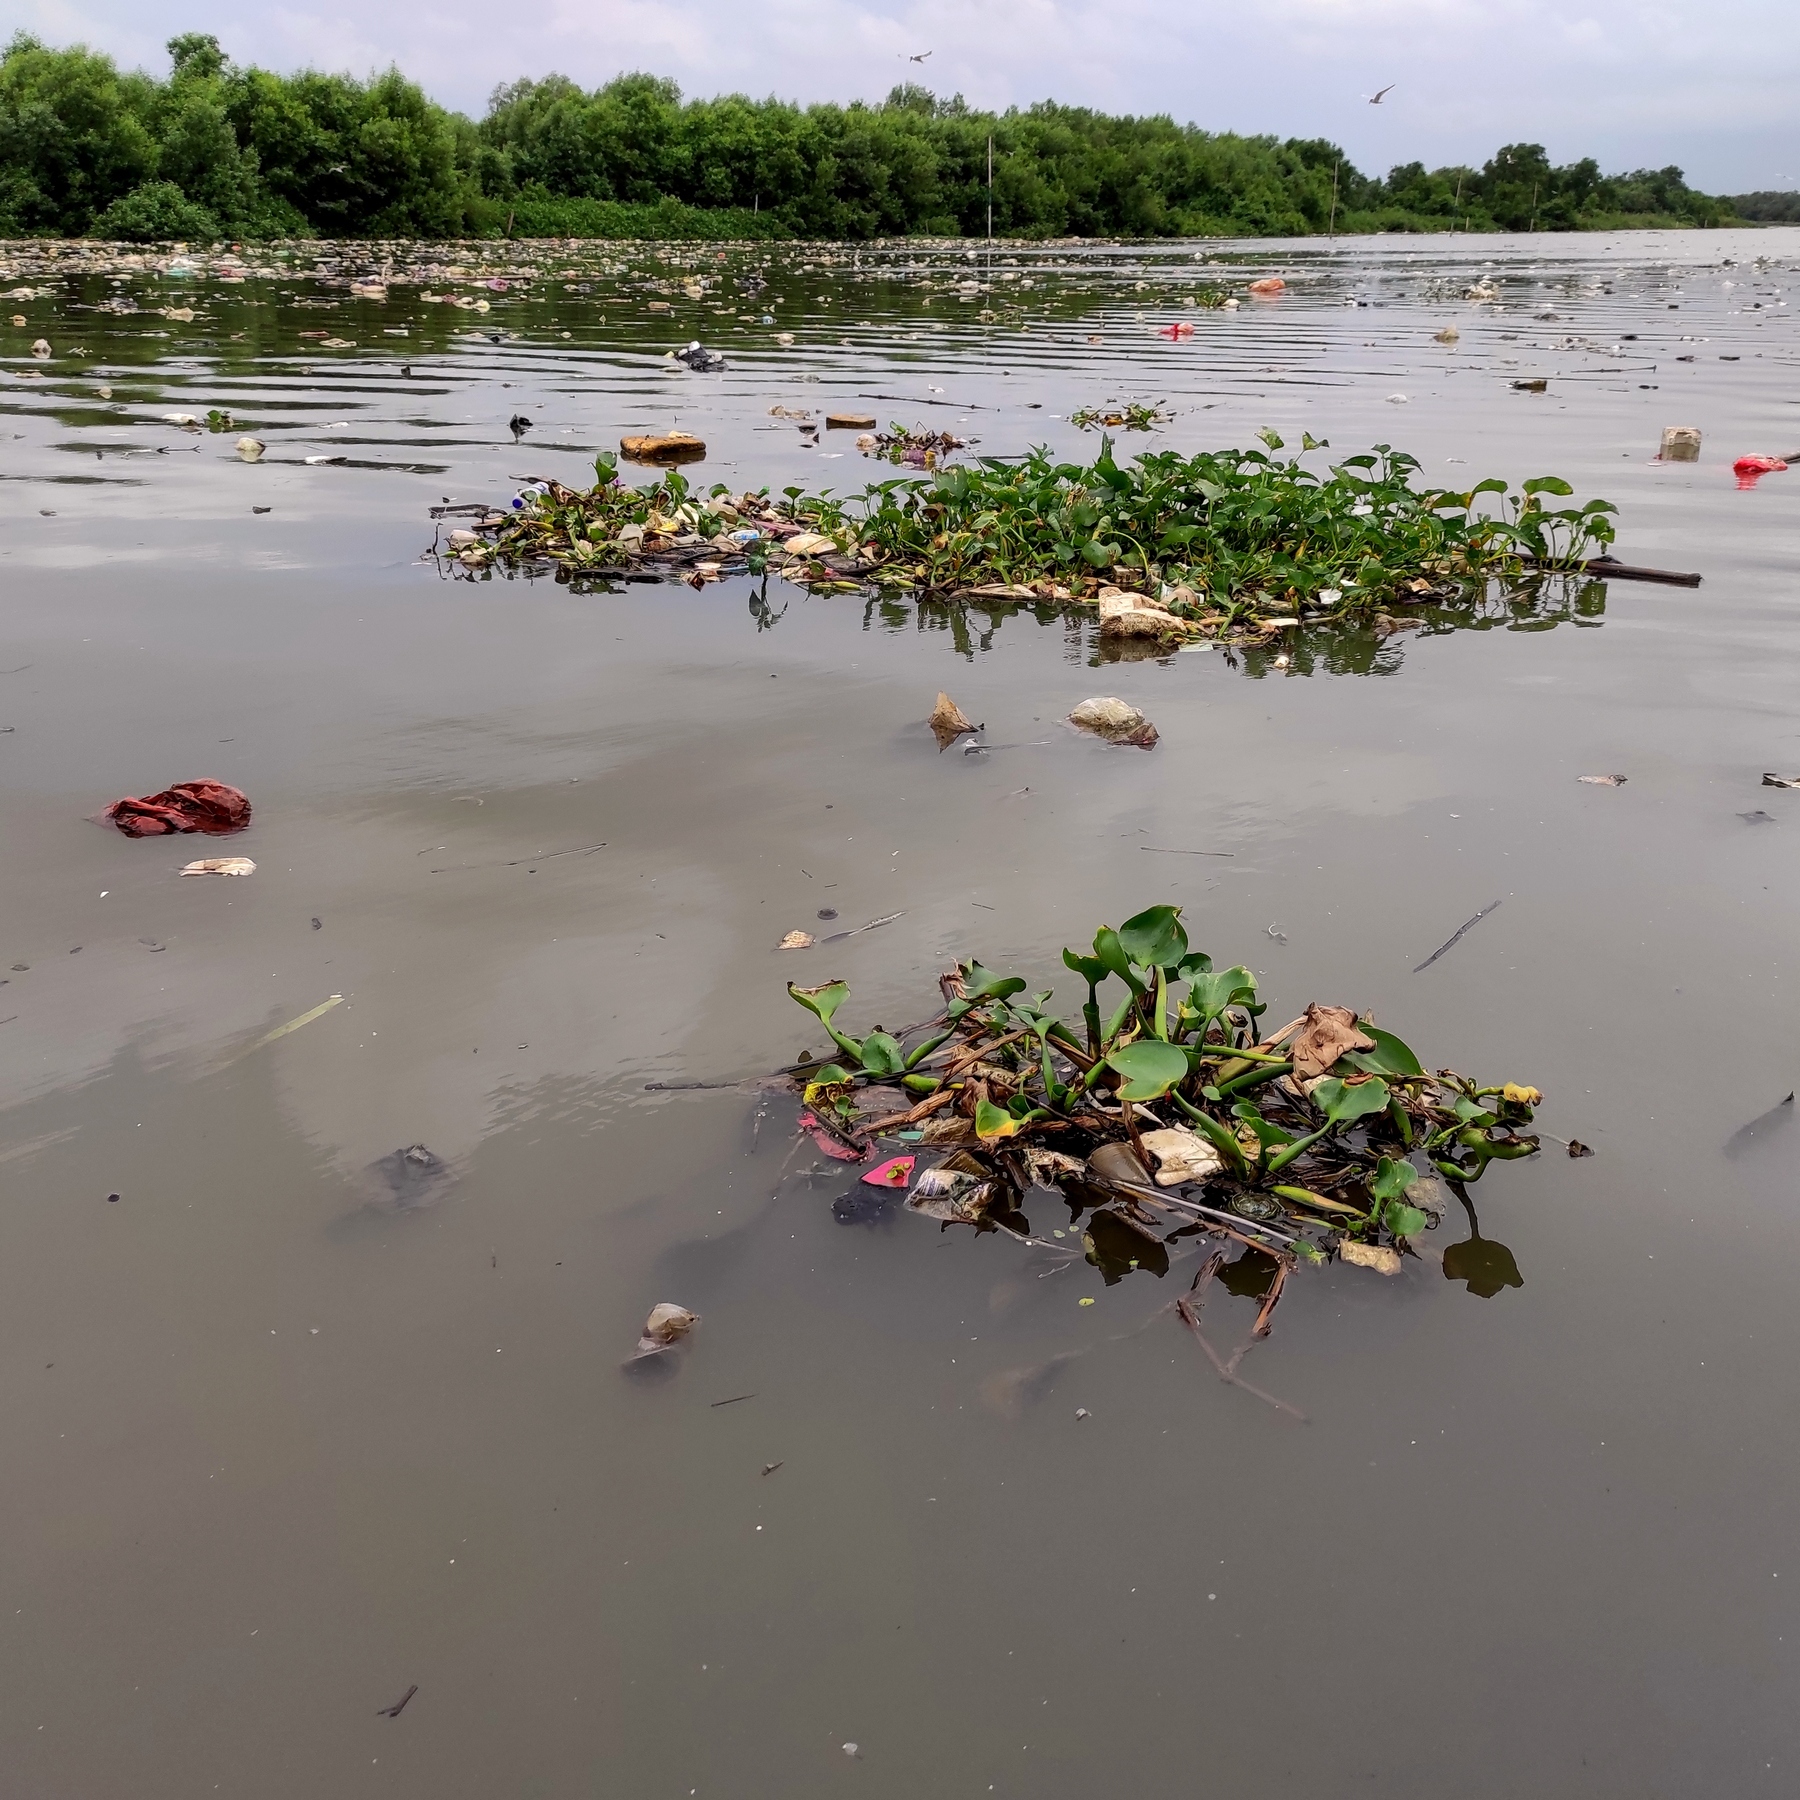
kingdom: Plantae
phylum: Tracheophyta
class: Liliopsida
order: Commelinales
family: Pontederiaceae
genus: Pontederia
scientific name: Pontederia crassipes
